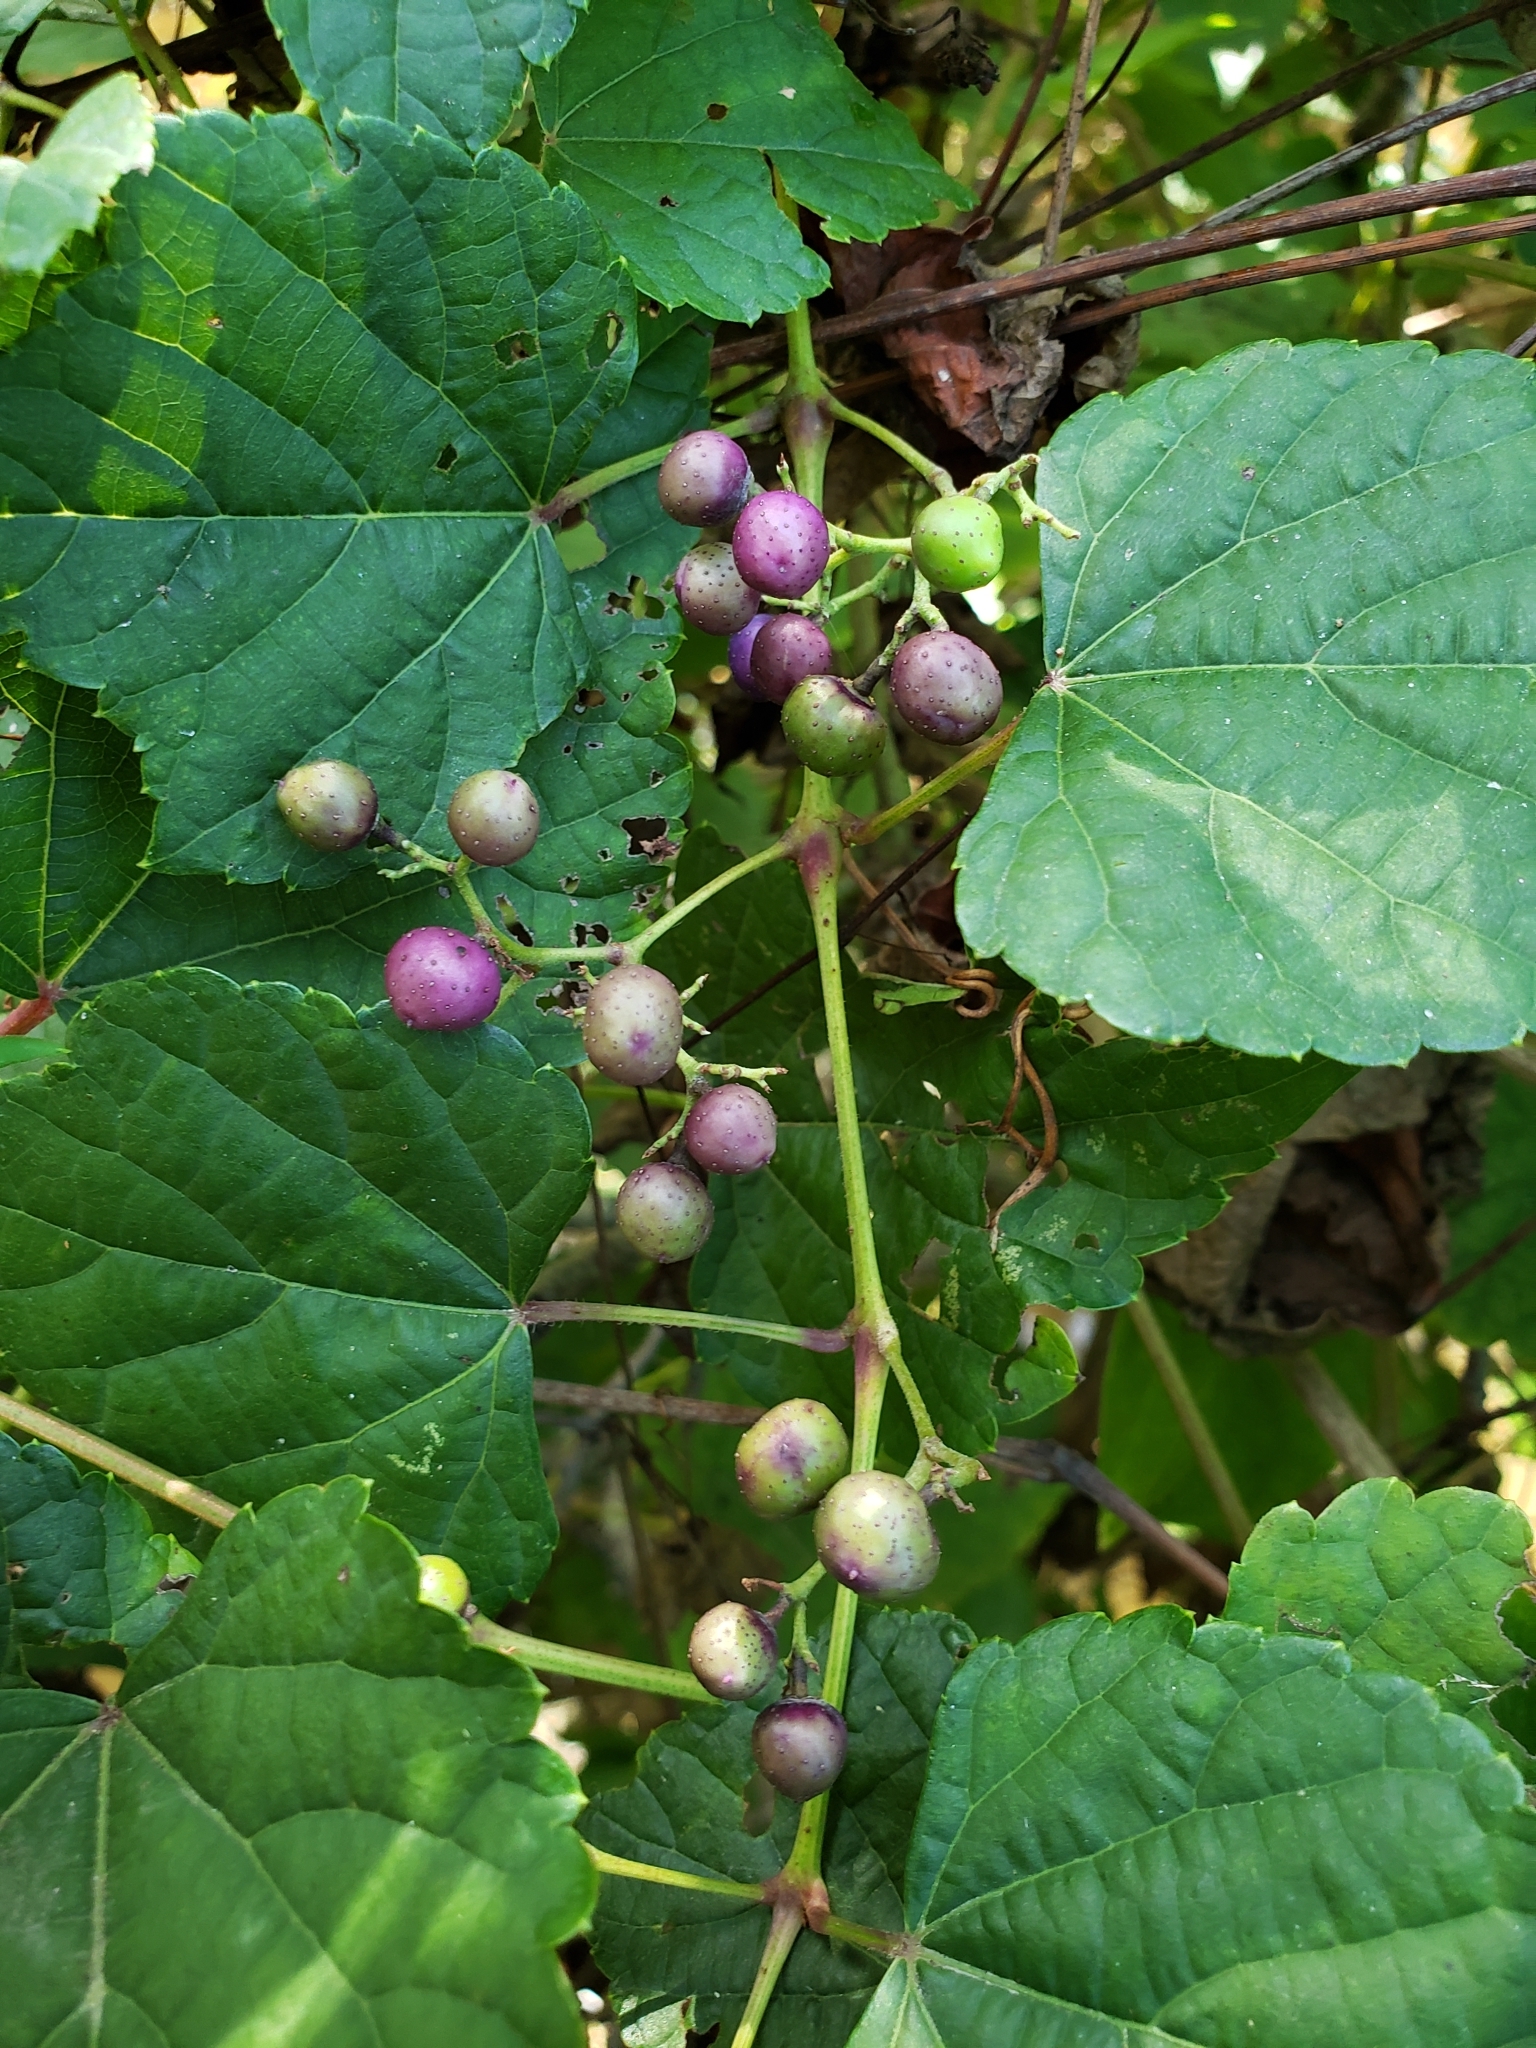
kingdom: Plantae
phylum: Tracheophyta
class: Magnoliopsida
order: Vitales
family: Vitaceae
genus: Ampelopsis
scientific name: Ampelopsis glandulosa
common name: Amur peppervine
